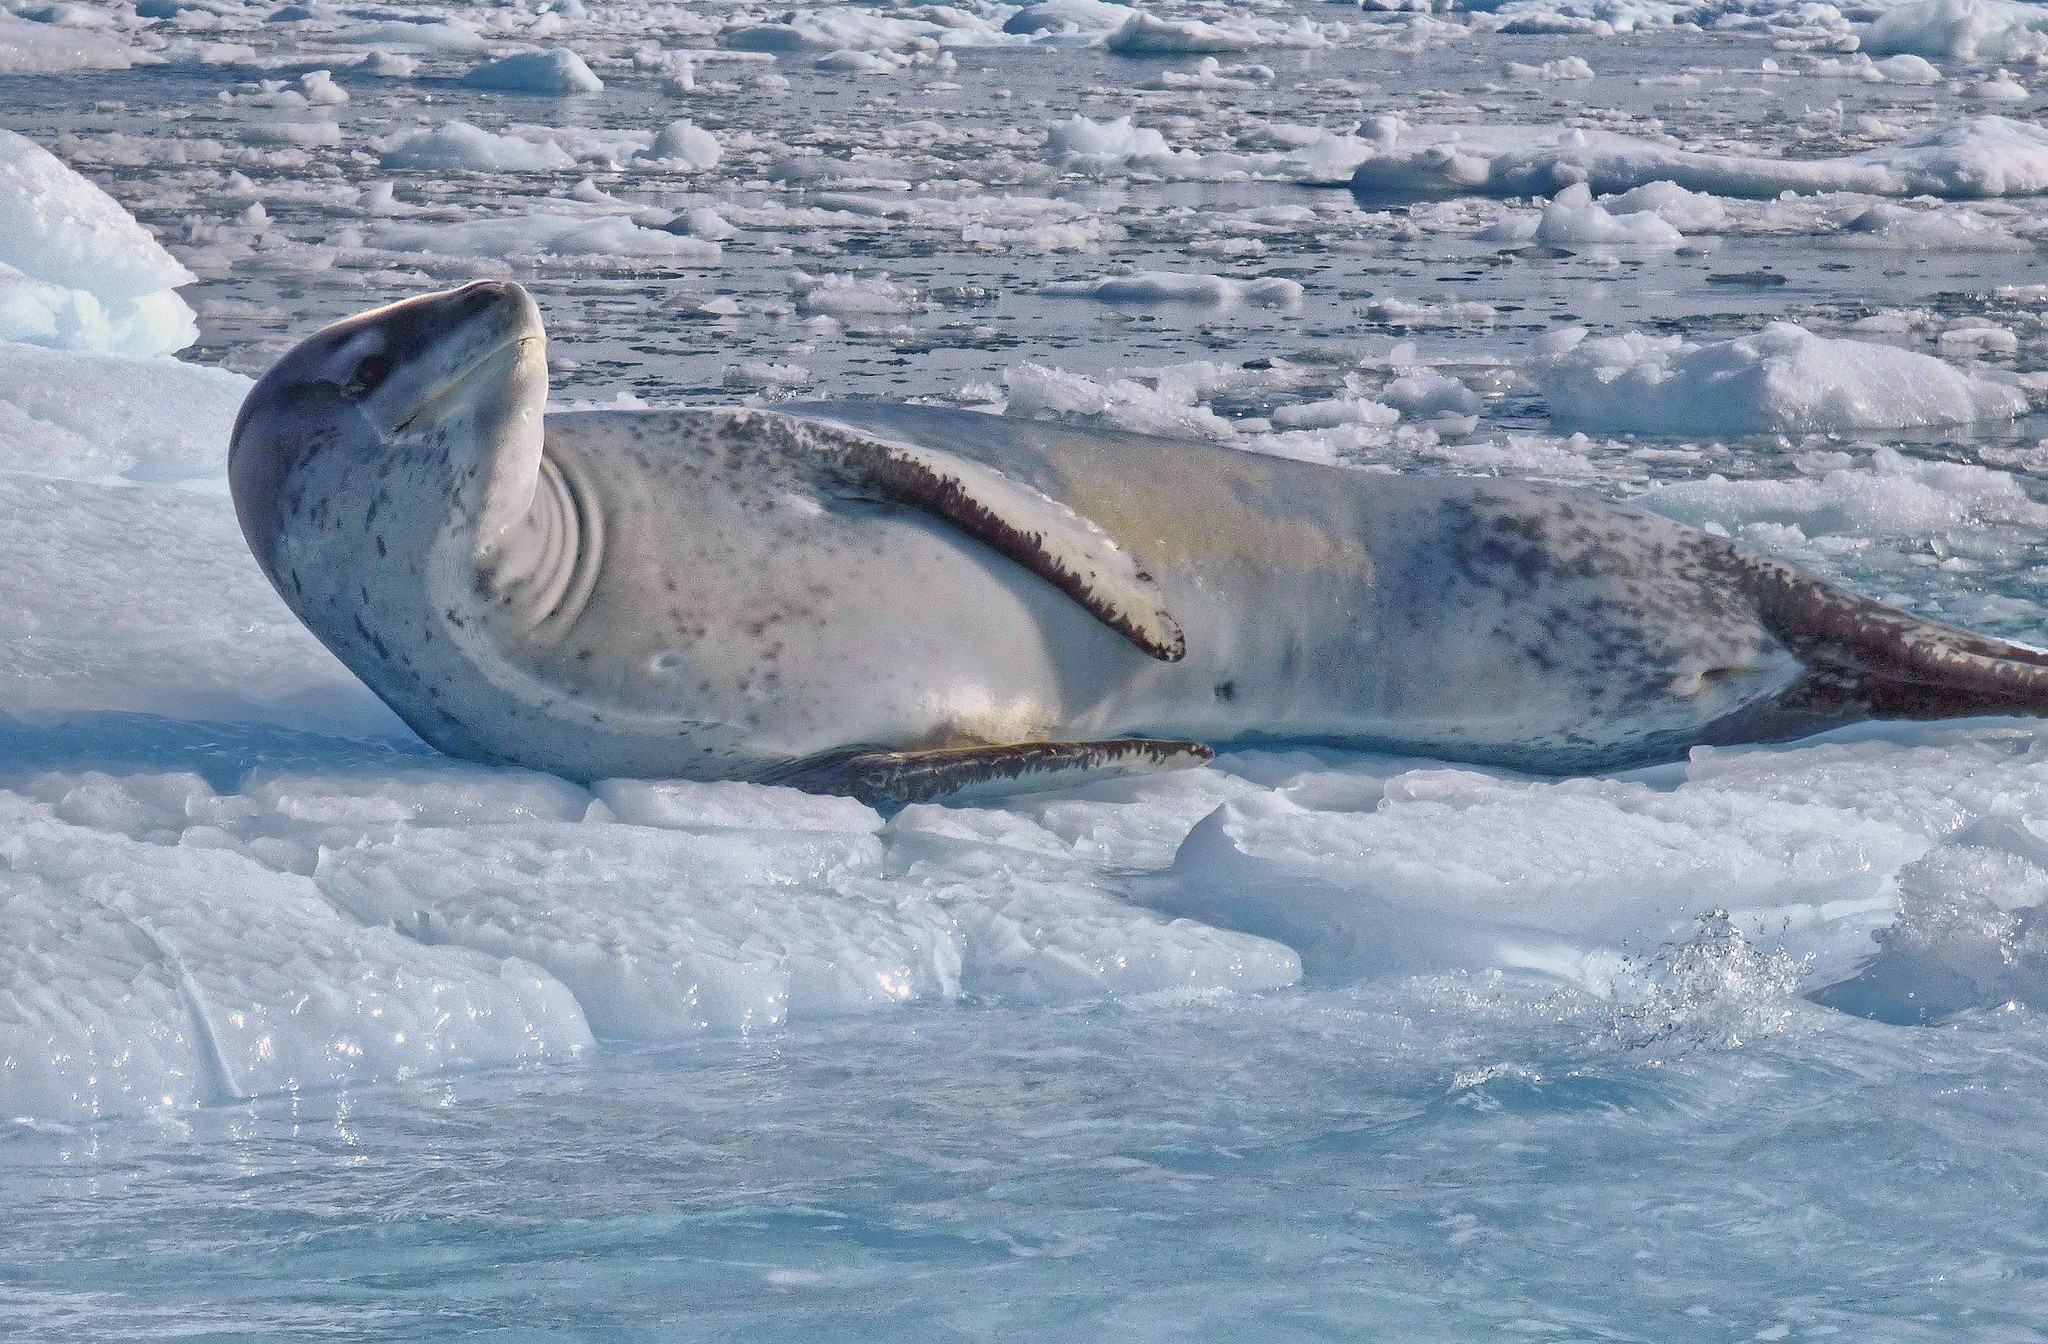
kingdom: Animalia
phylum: Chordata
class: Mammalia
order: Carnivora
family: Phocidae
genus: Hydrurga
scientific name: Hydrurga leptonyx
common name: Leopard seal
